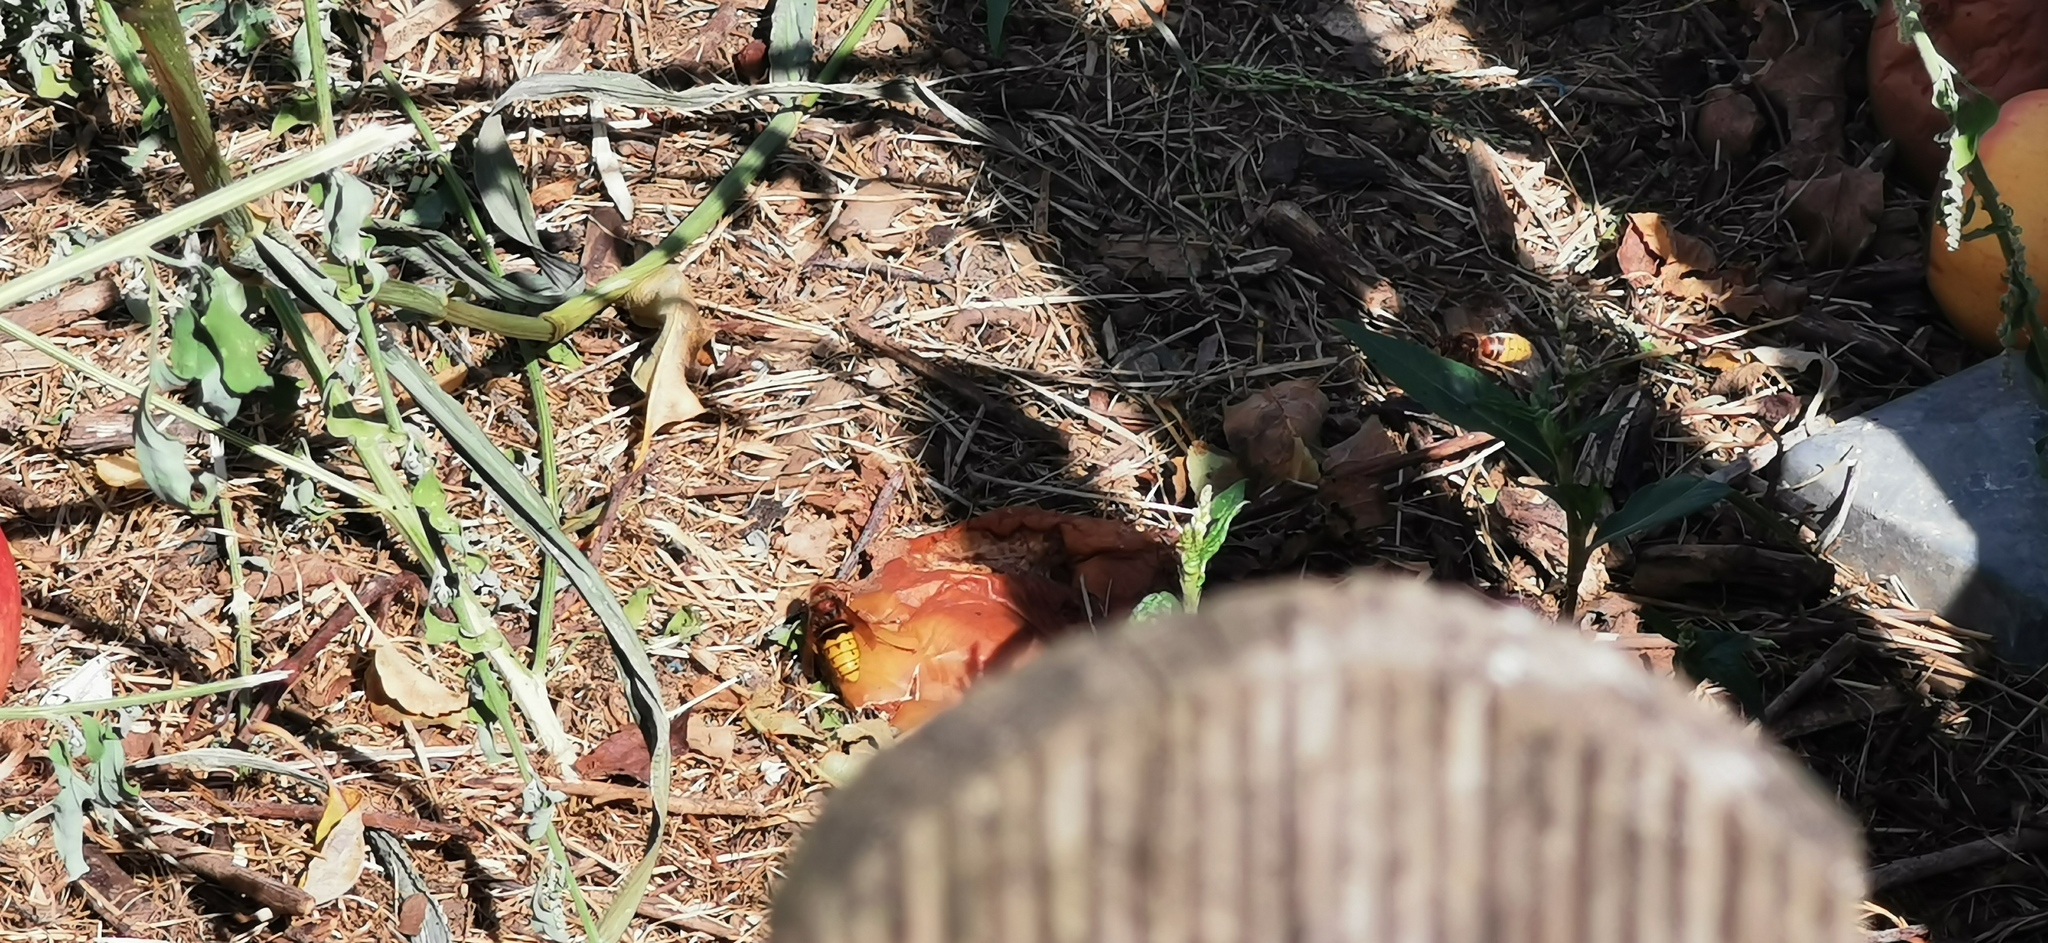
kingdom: Animalia
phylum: Arthropoda
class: Insecta
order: Hymenoptera
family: Vespidae
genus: Vespa
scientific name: Vespa crabro
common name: Hornet
